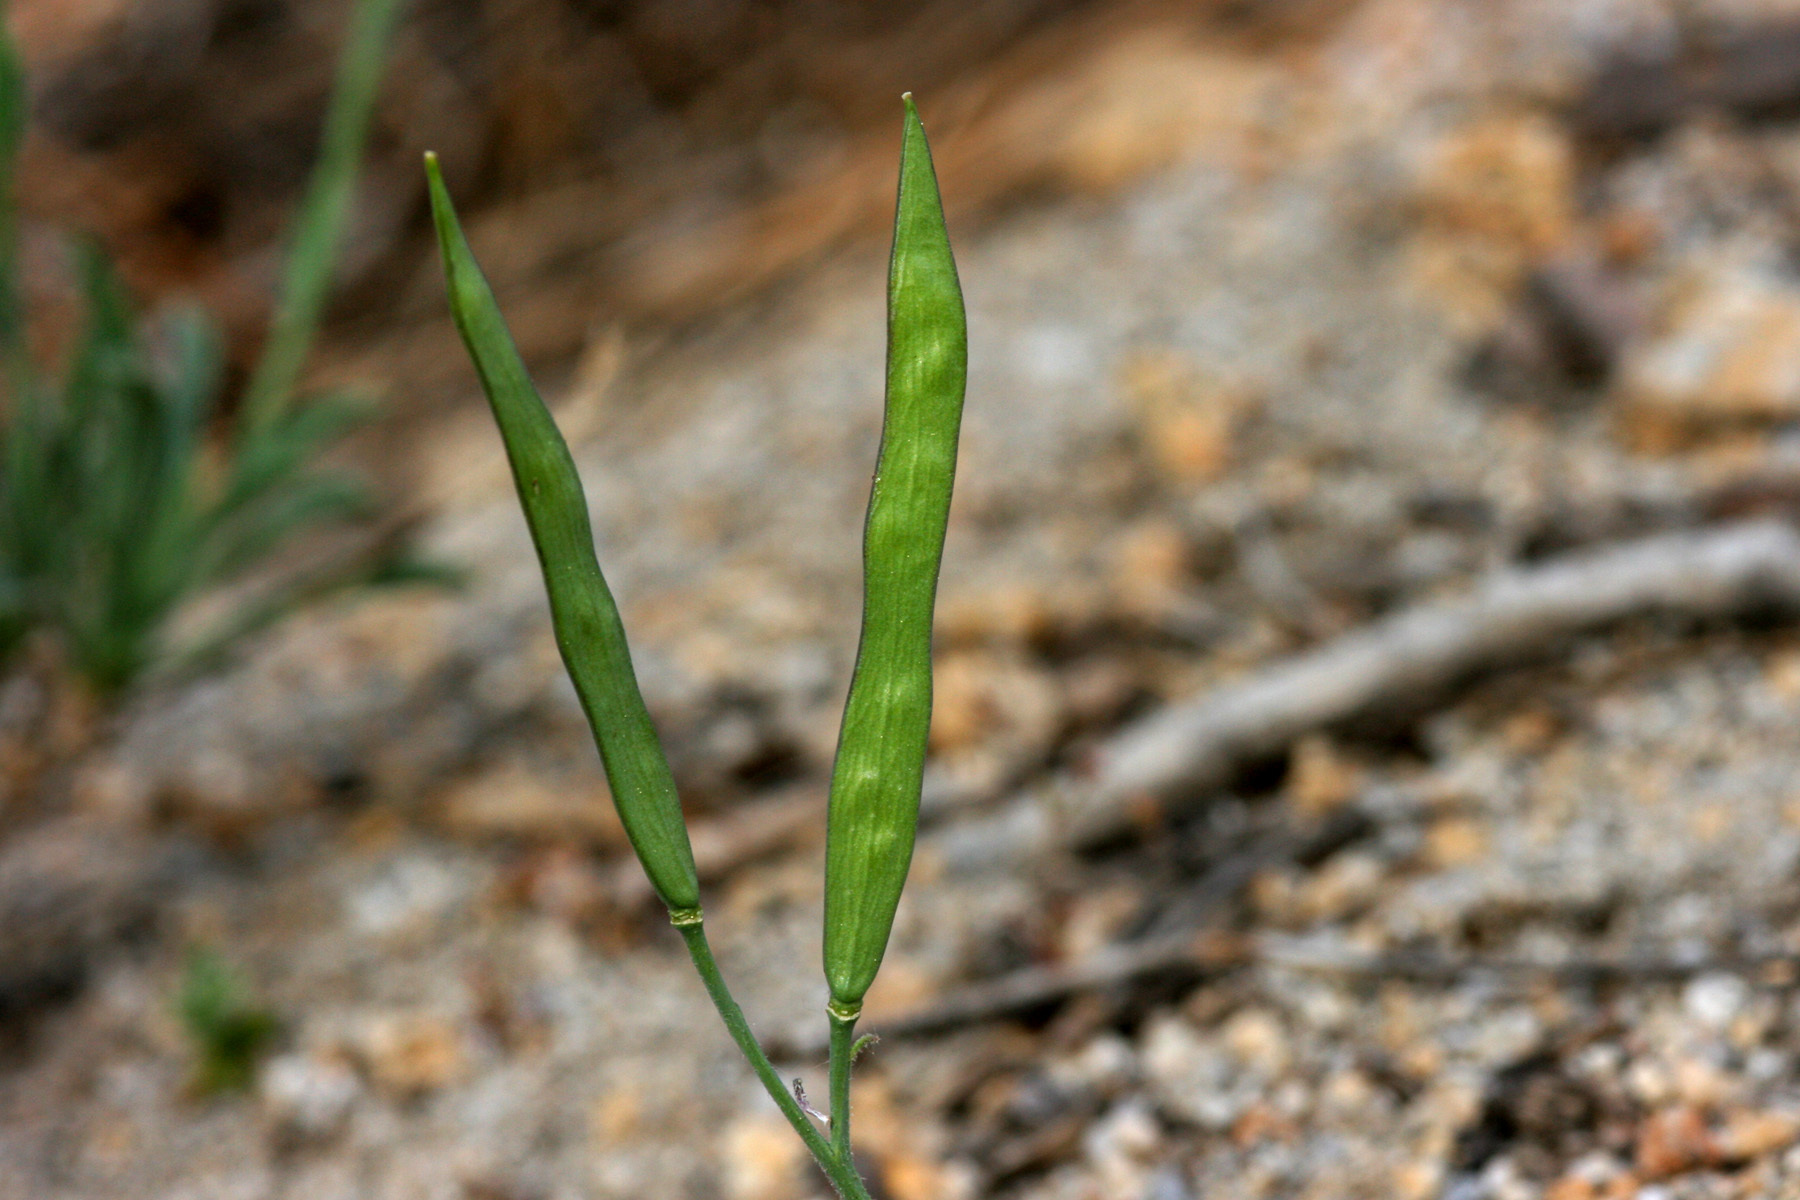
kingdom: Plantae
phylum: Tracheophyta
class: Magnoliopsida
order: Brassicales
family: Brassicaceae
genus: Boechera
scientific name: Boechera platysperma
